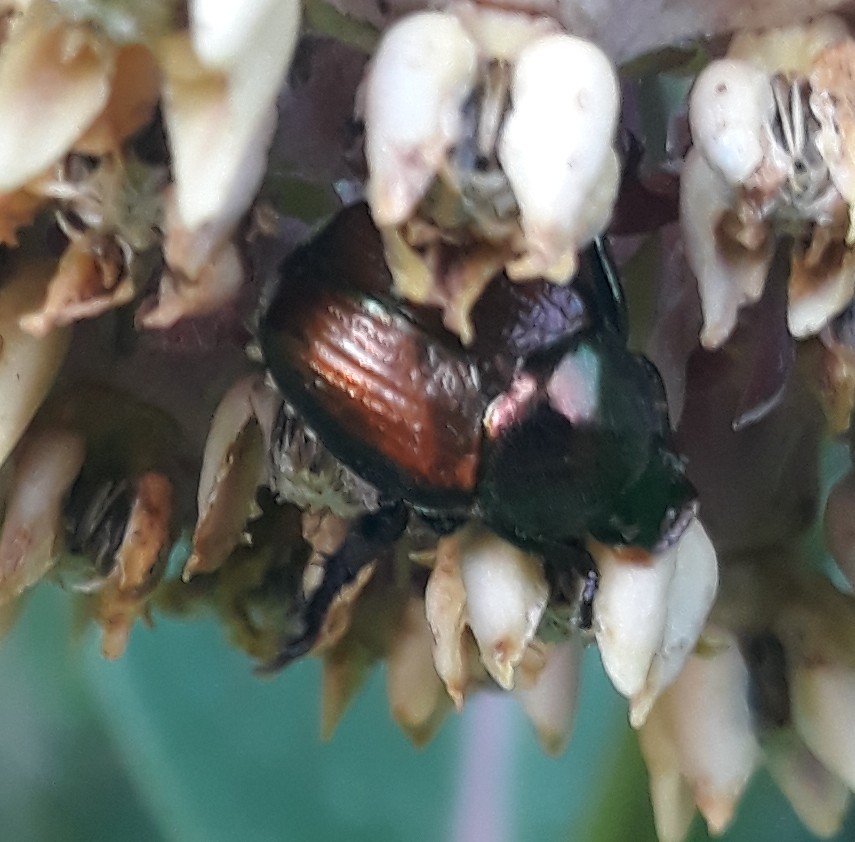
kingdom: Animalia
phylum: Arthropoda
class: Insecta
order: Coleoptera
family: Scarabaeidae
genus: Popillia
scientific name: Popillia japonica
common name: Japanese beetle
